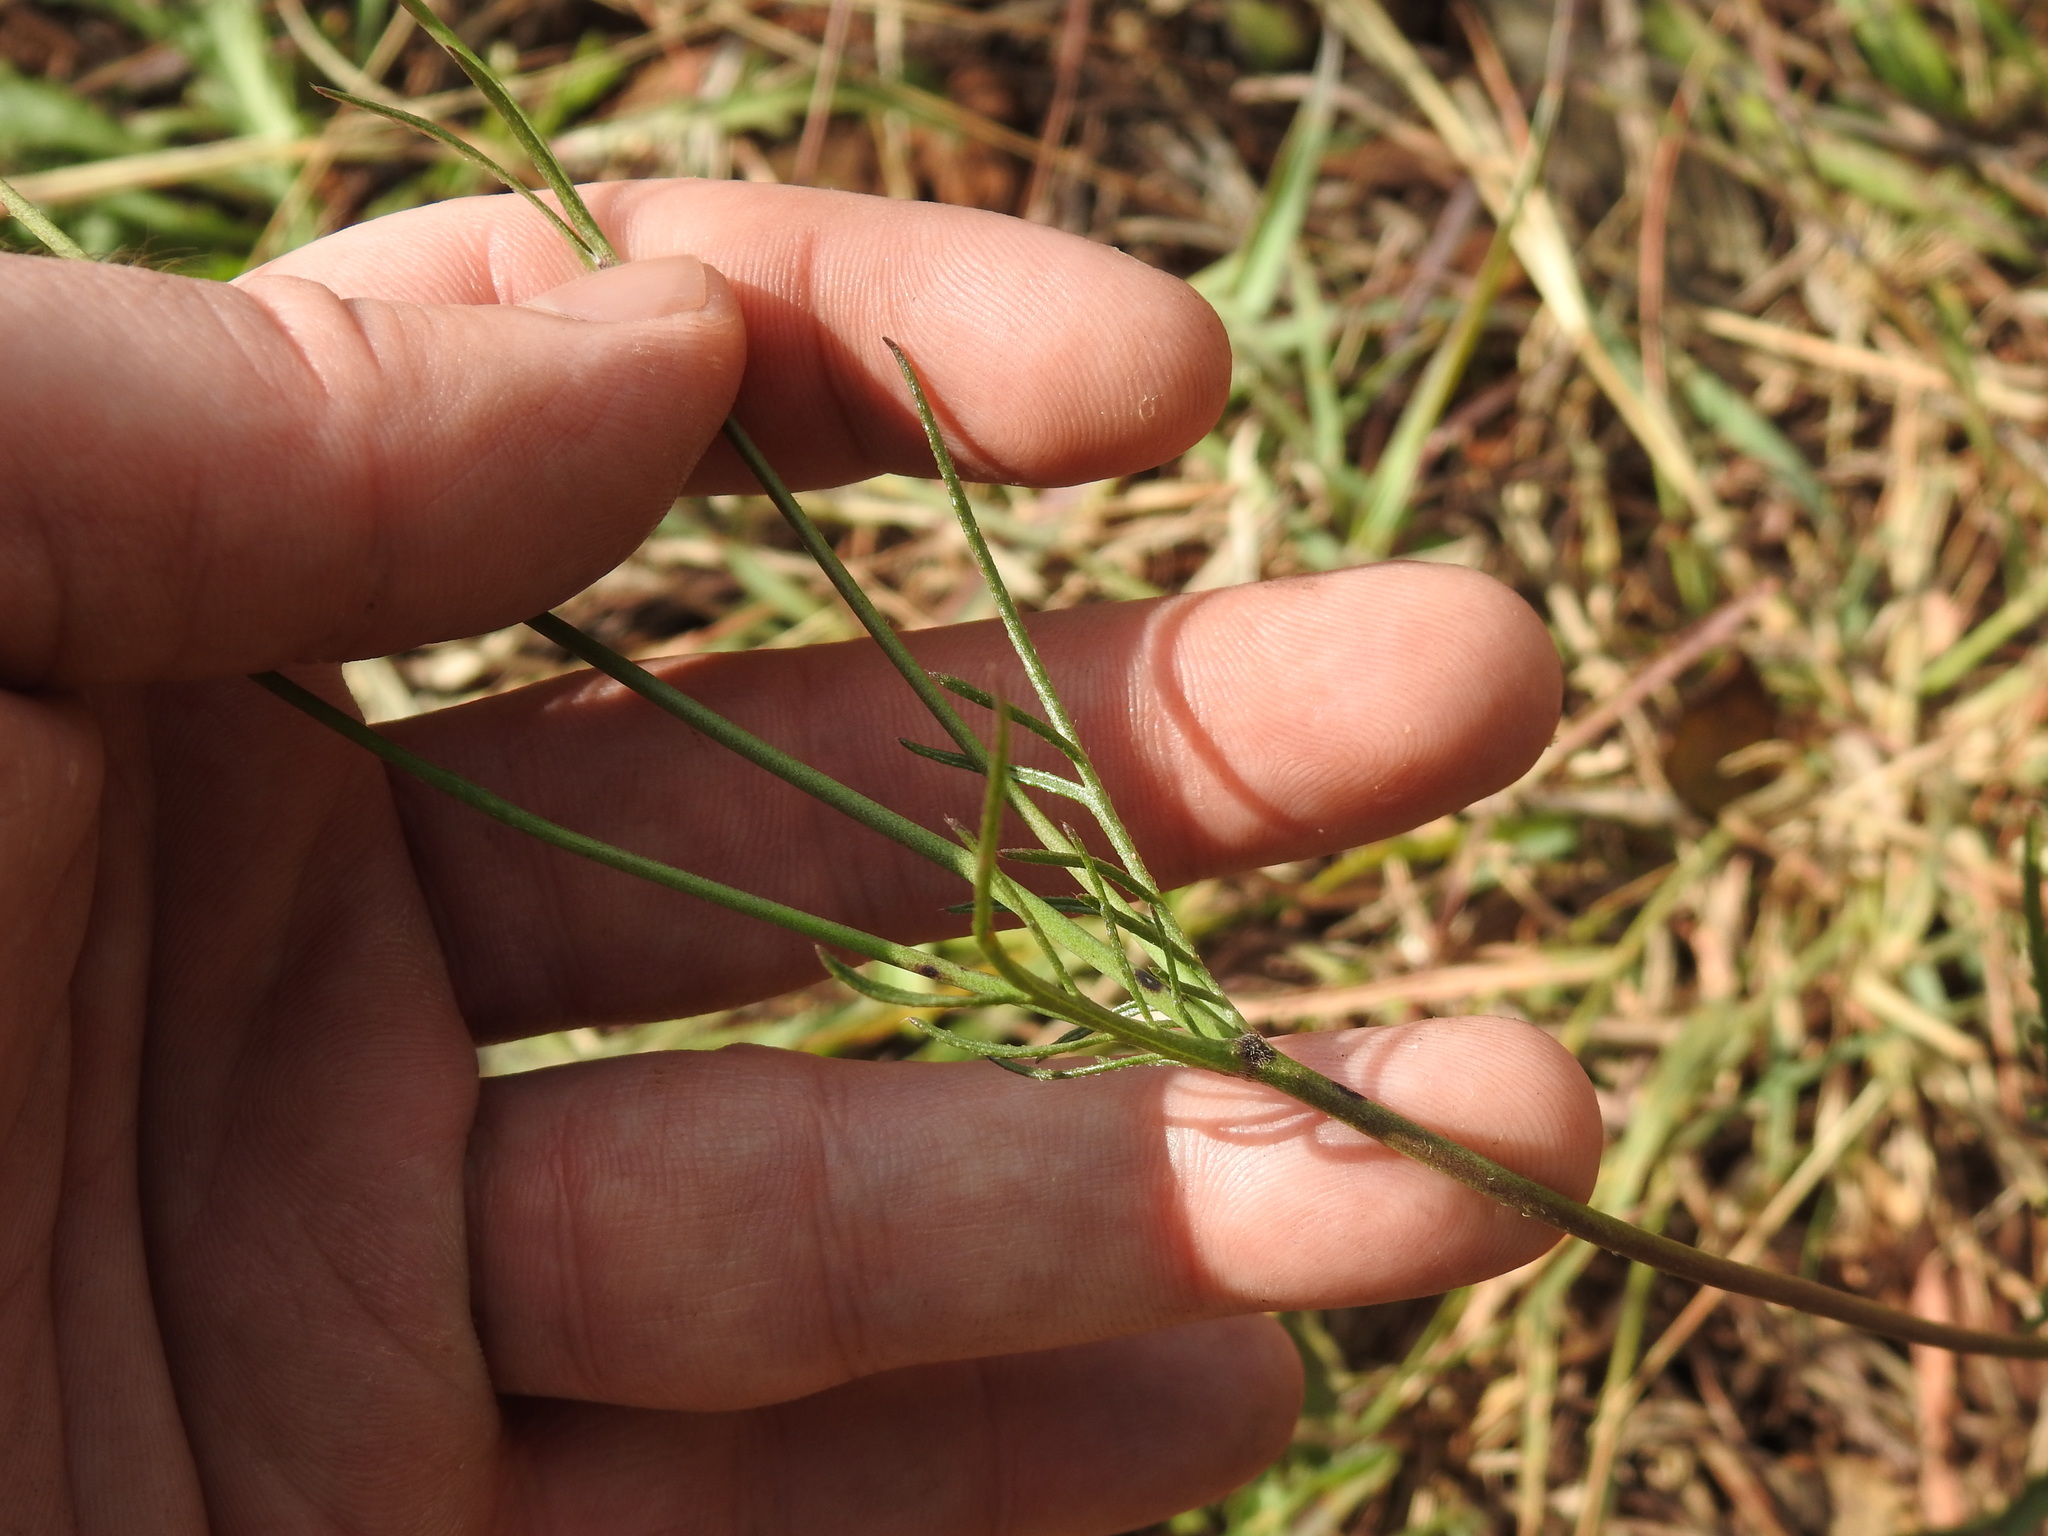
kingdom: Plantae
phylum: Tracheophyta
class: Magnoliopsida
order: Dipsacales
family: Caprifoliaceae
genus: Scabiosa
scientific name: Scabiosa columbaria
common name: Small scabious
